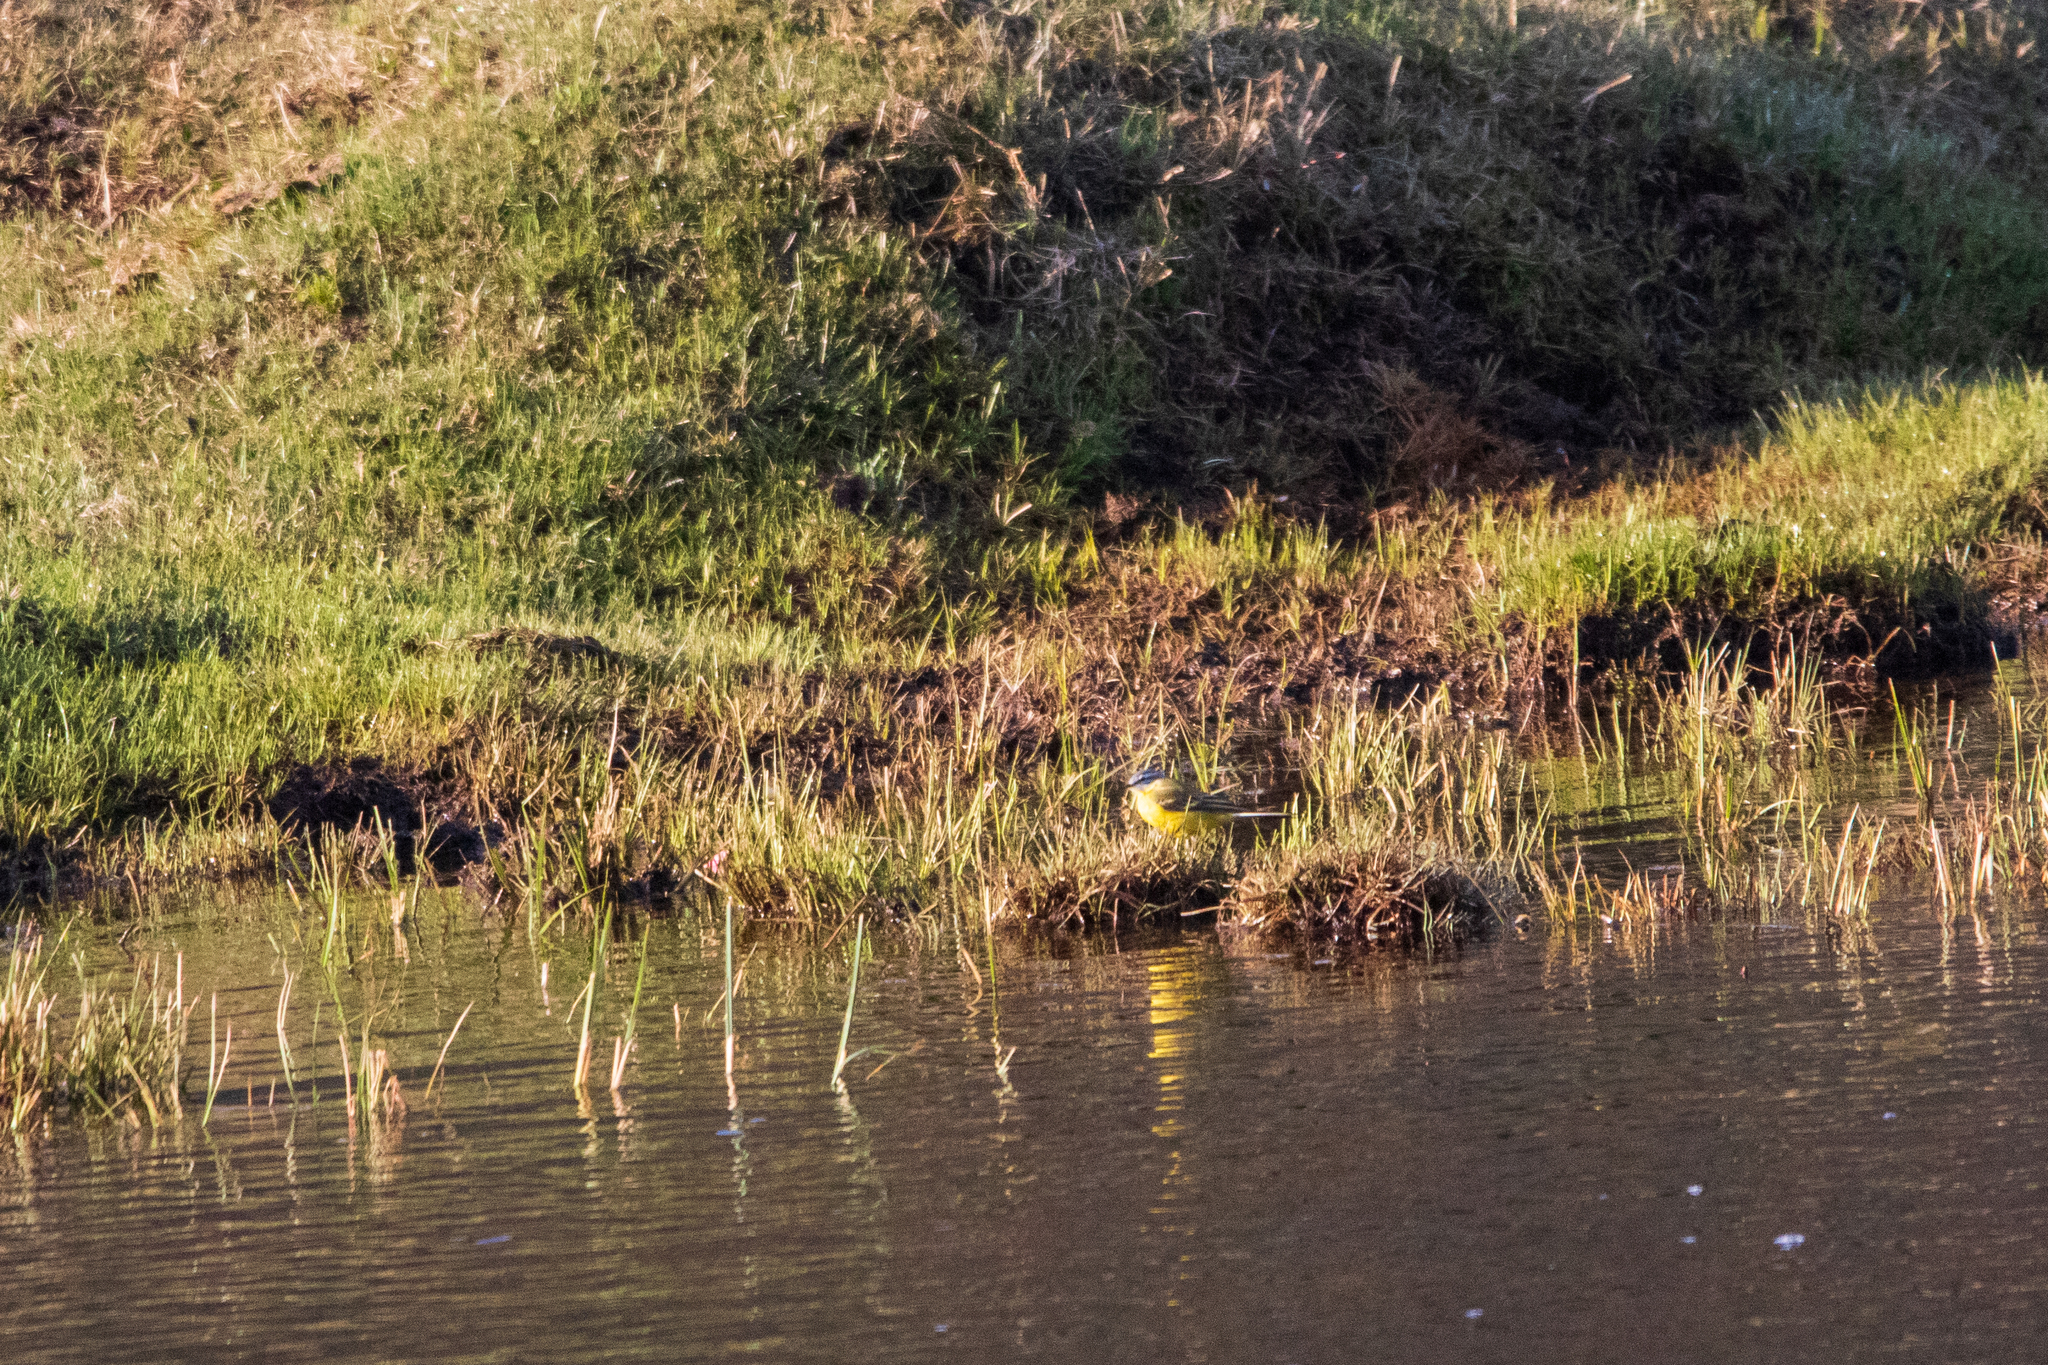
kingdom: Animalia
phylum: Chordata
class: Aves
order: Passeriformes
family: Motacillidae
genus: Motacilla
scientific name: Motacilla flava
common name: Western yellow wagtail
